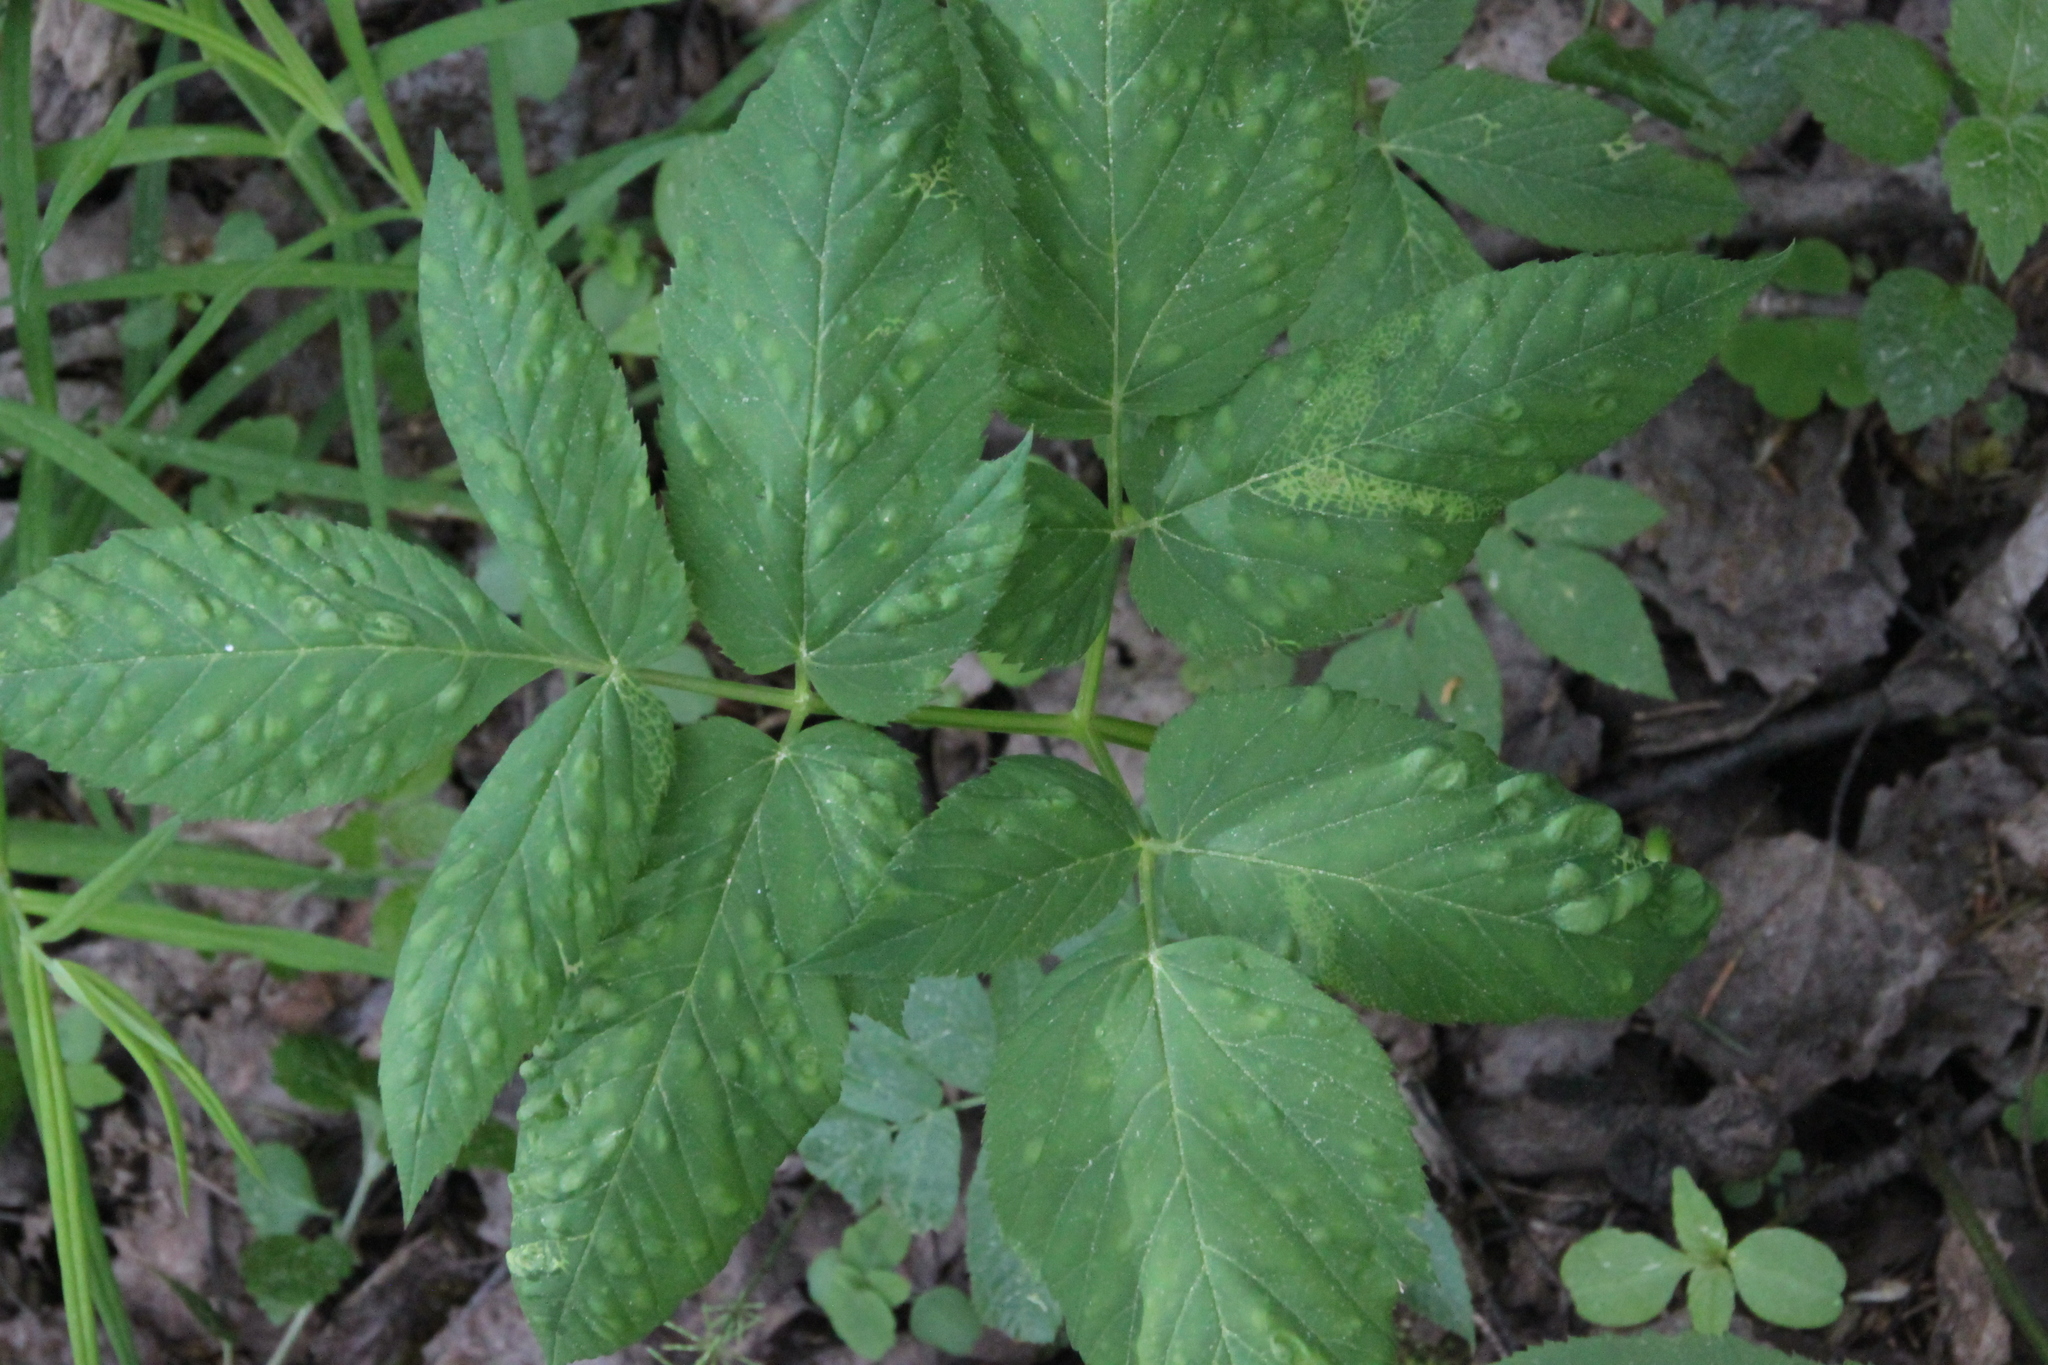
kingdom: Plantae
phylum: Tracheophyta
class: Magnoliopsida
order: Apiales
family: Apiaceae
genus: Aegopodium
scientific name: Aegopodium podagraria
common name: Ground-elder
